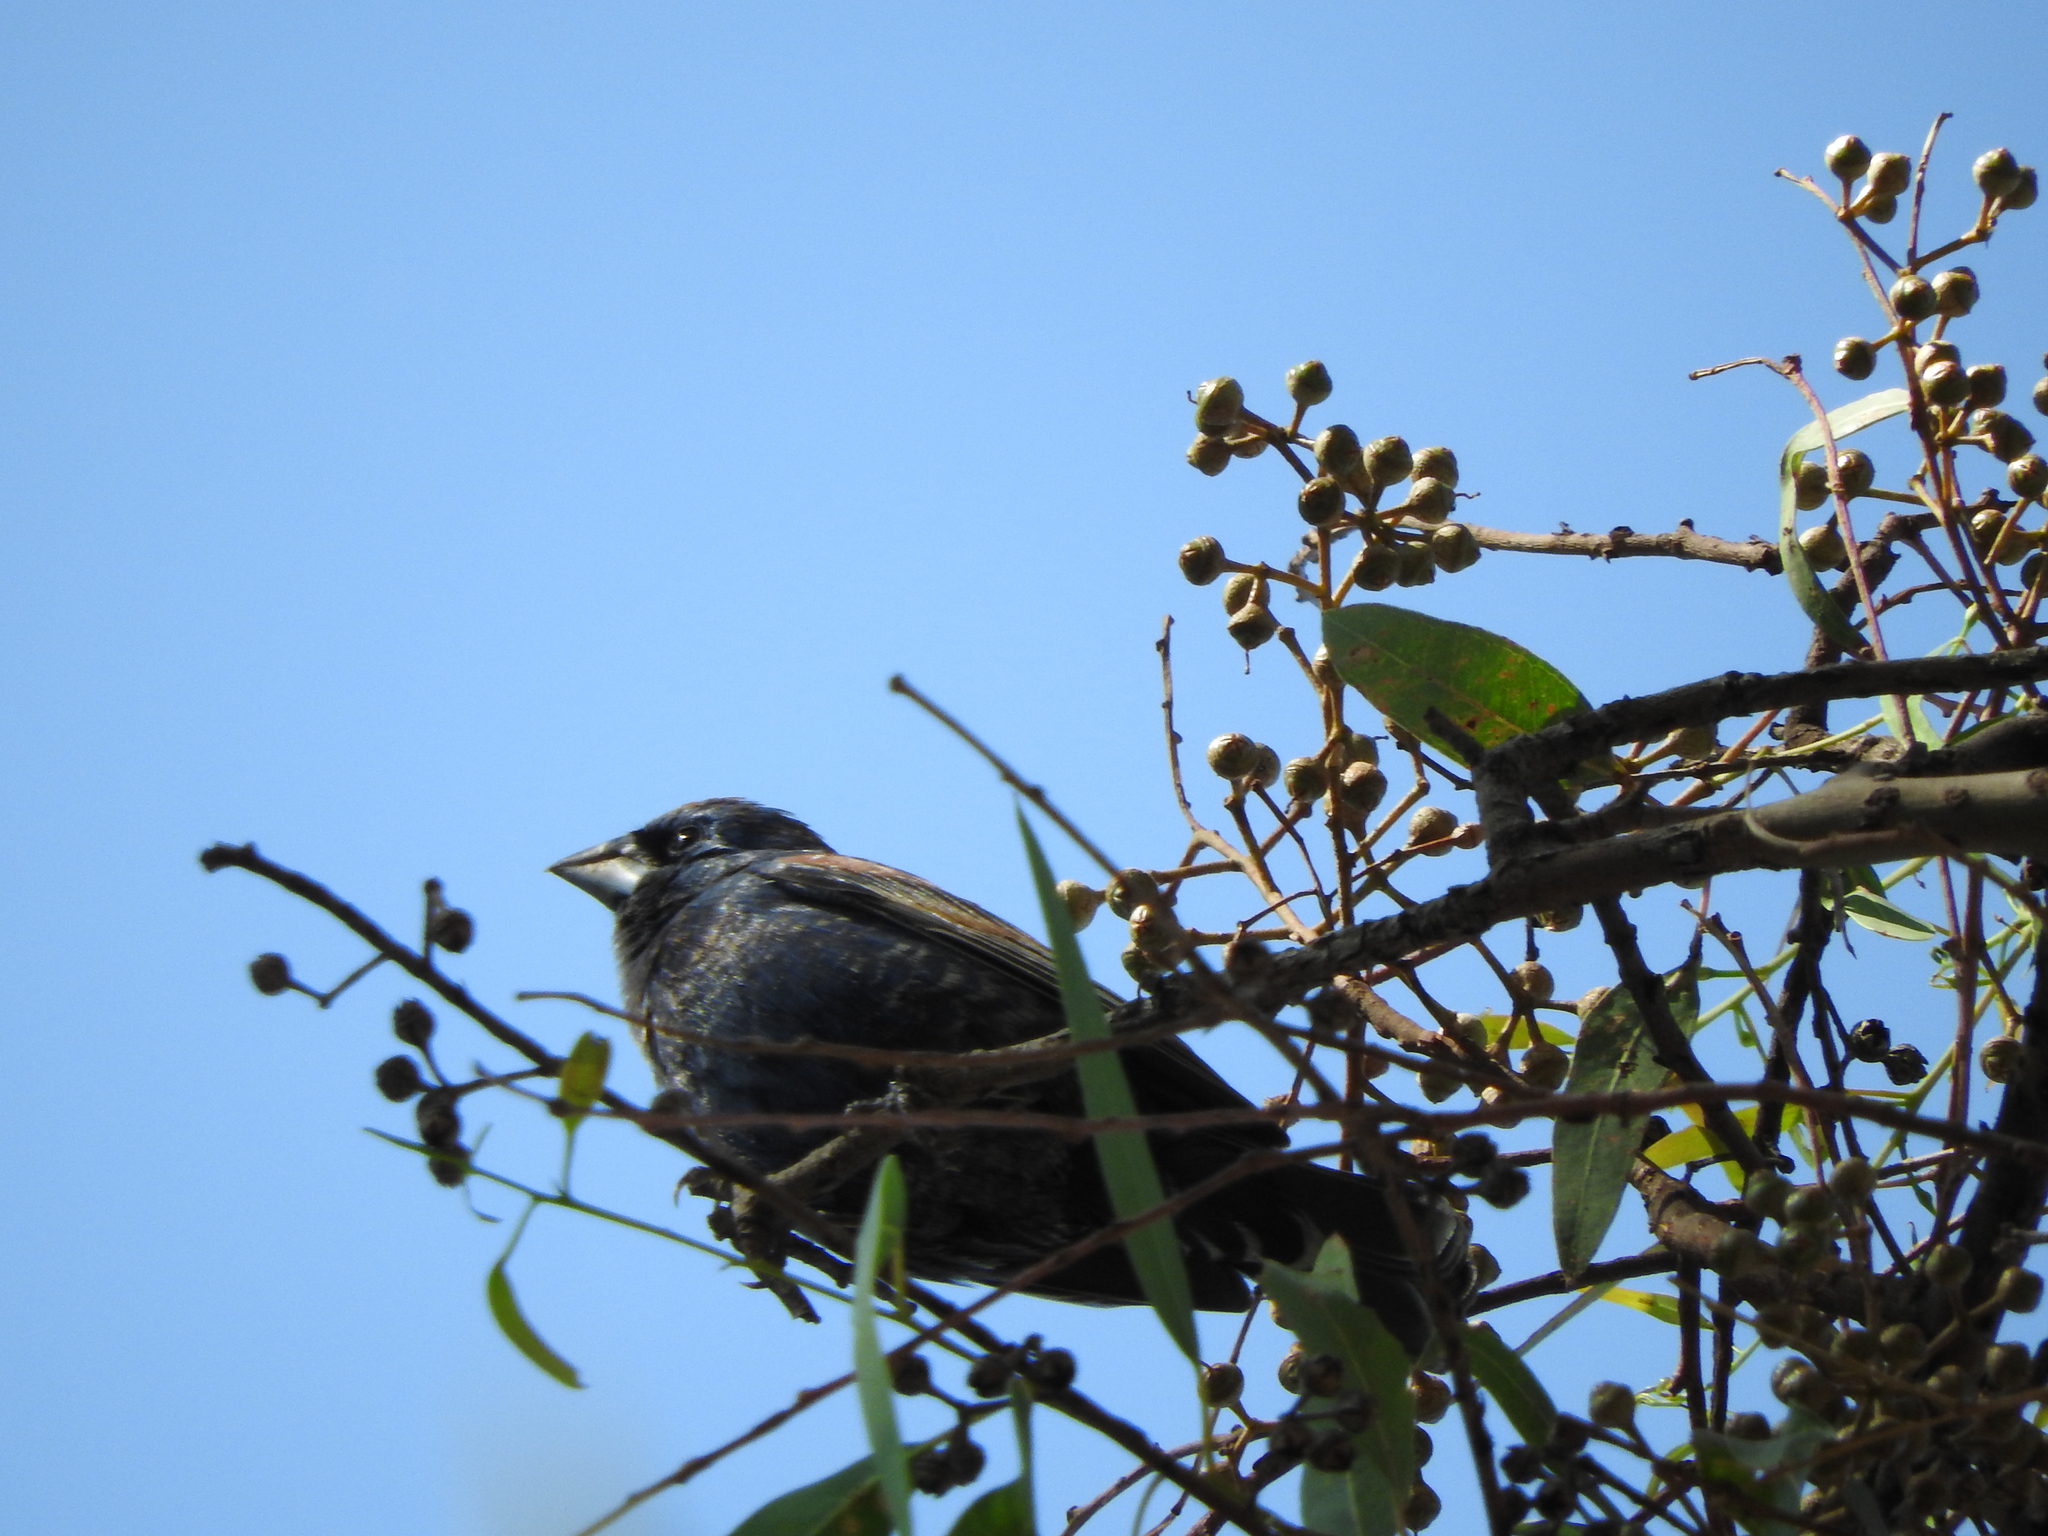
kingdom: Animalia
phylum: Chordata
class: Aves
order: Passeriformes
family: Cardinalidae
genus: Passerina
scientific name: Passerina caerulea
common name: Blue grosbeak
